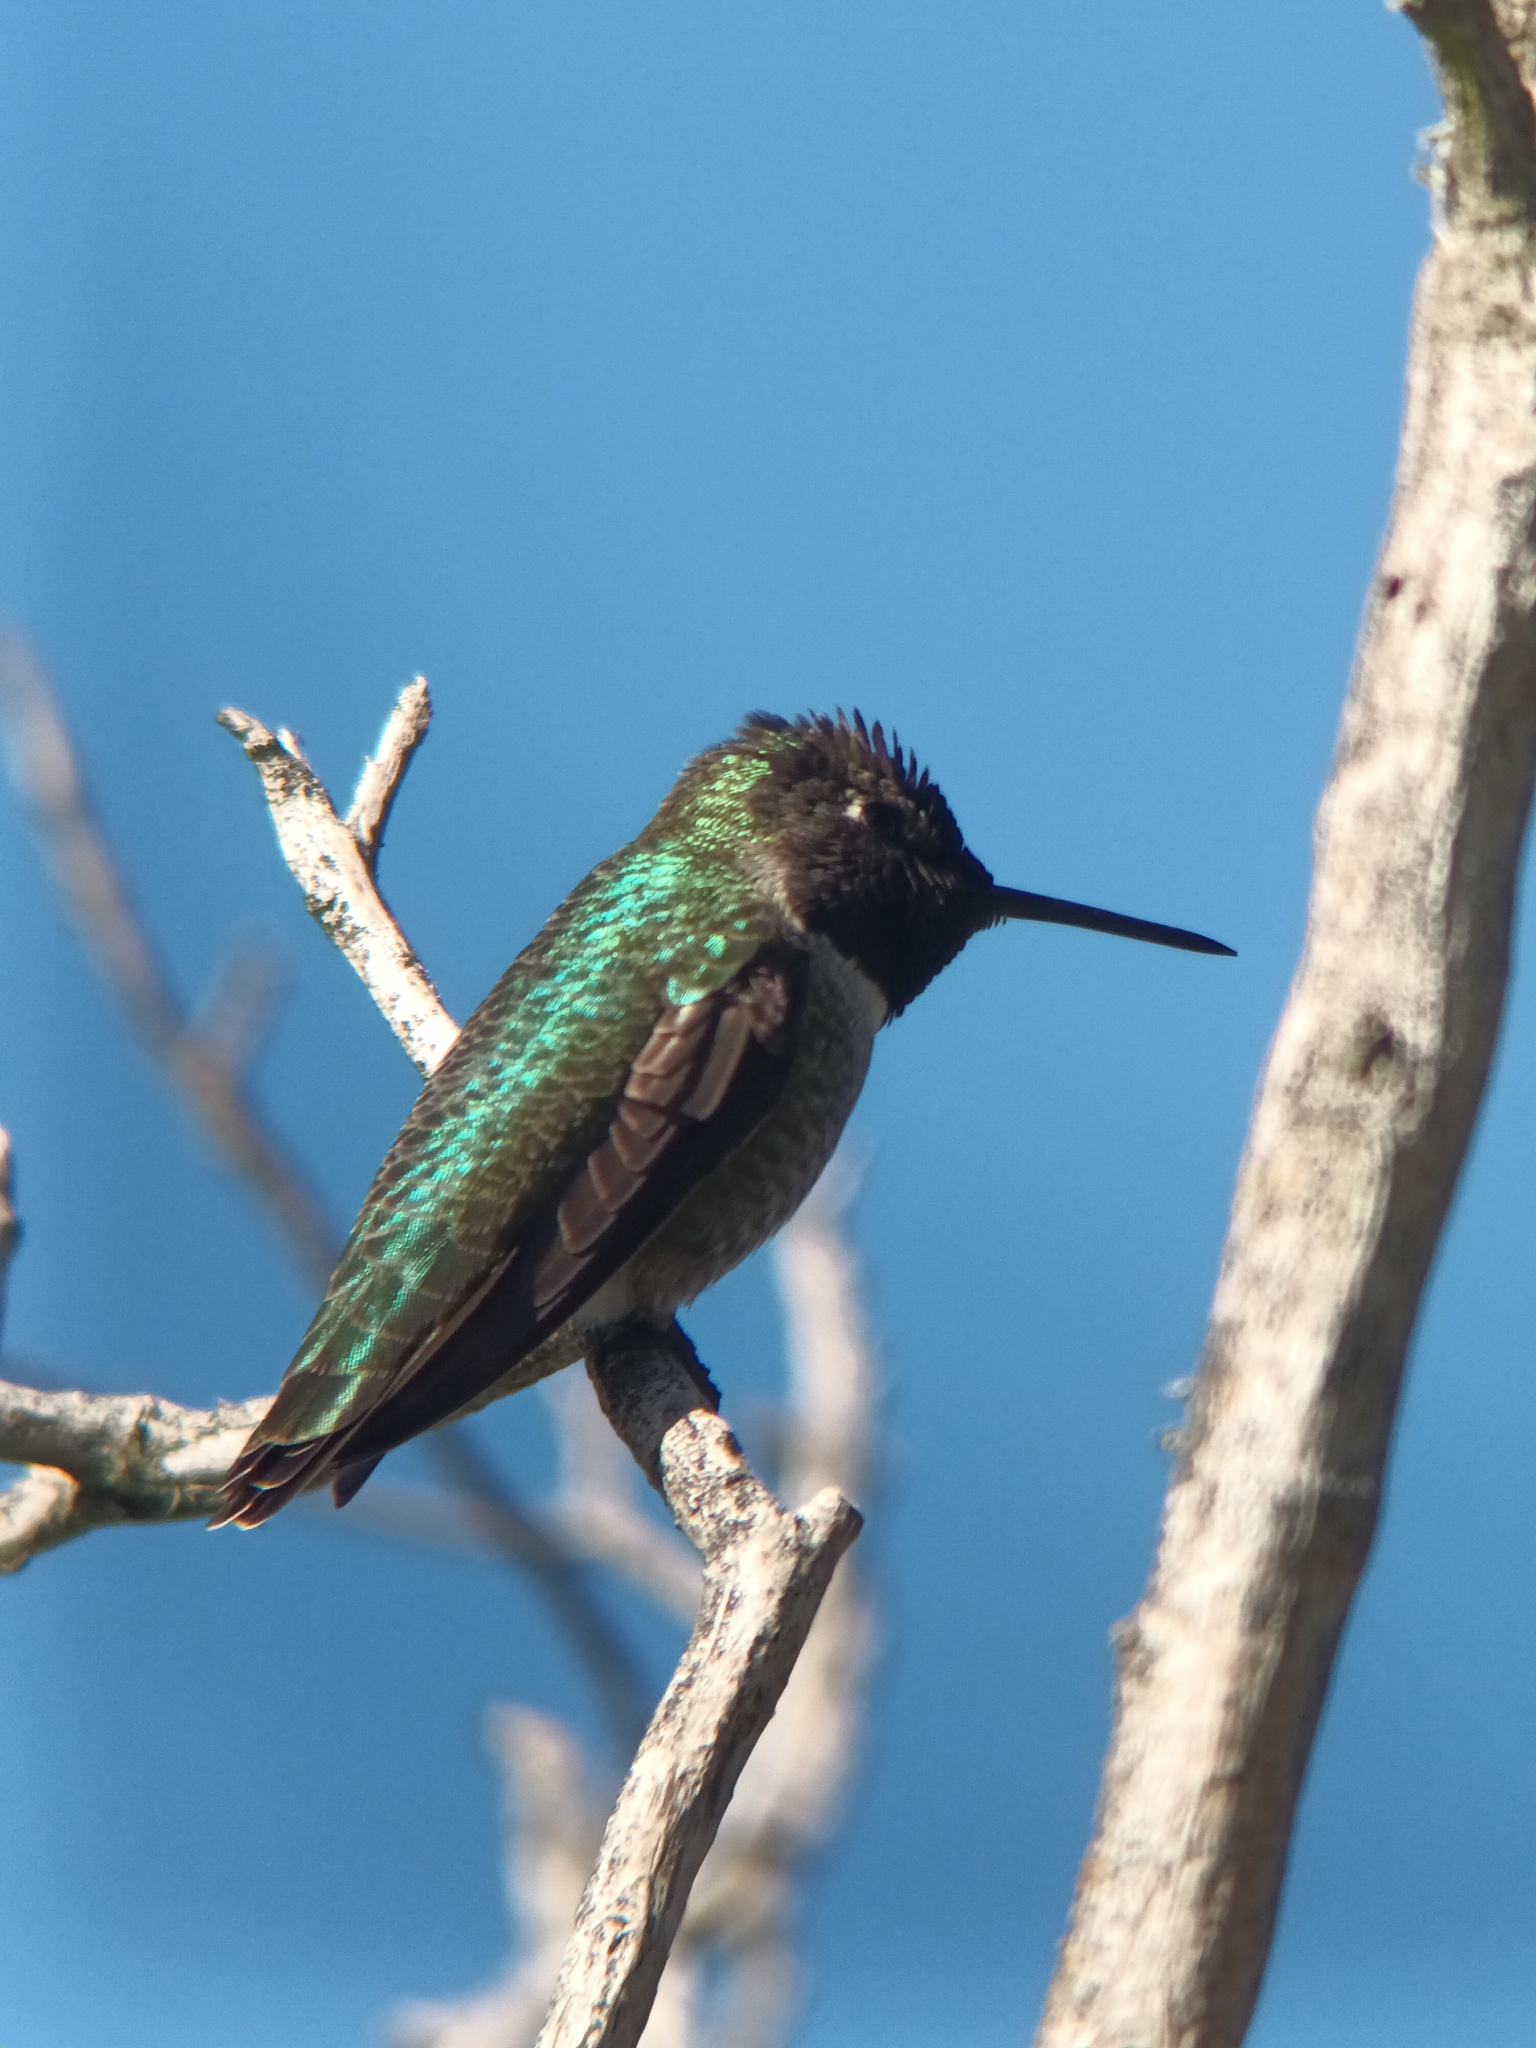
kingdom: Animalia
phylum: Chordata
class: Aves
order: Apodiformes
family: Trochilidae
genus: Calypte
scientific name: Calypte anna
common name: Anna's hummingbird
